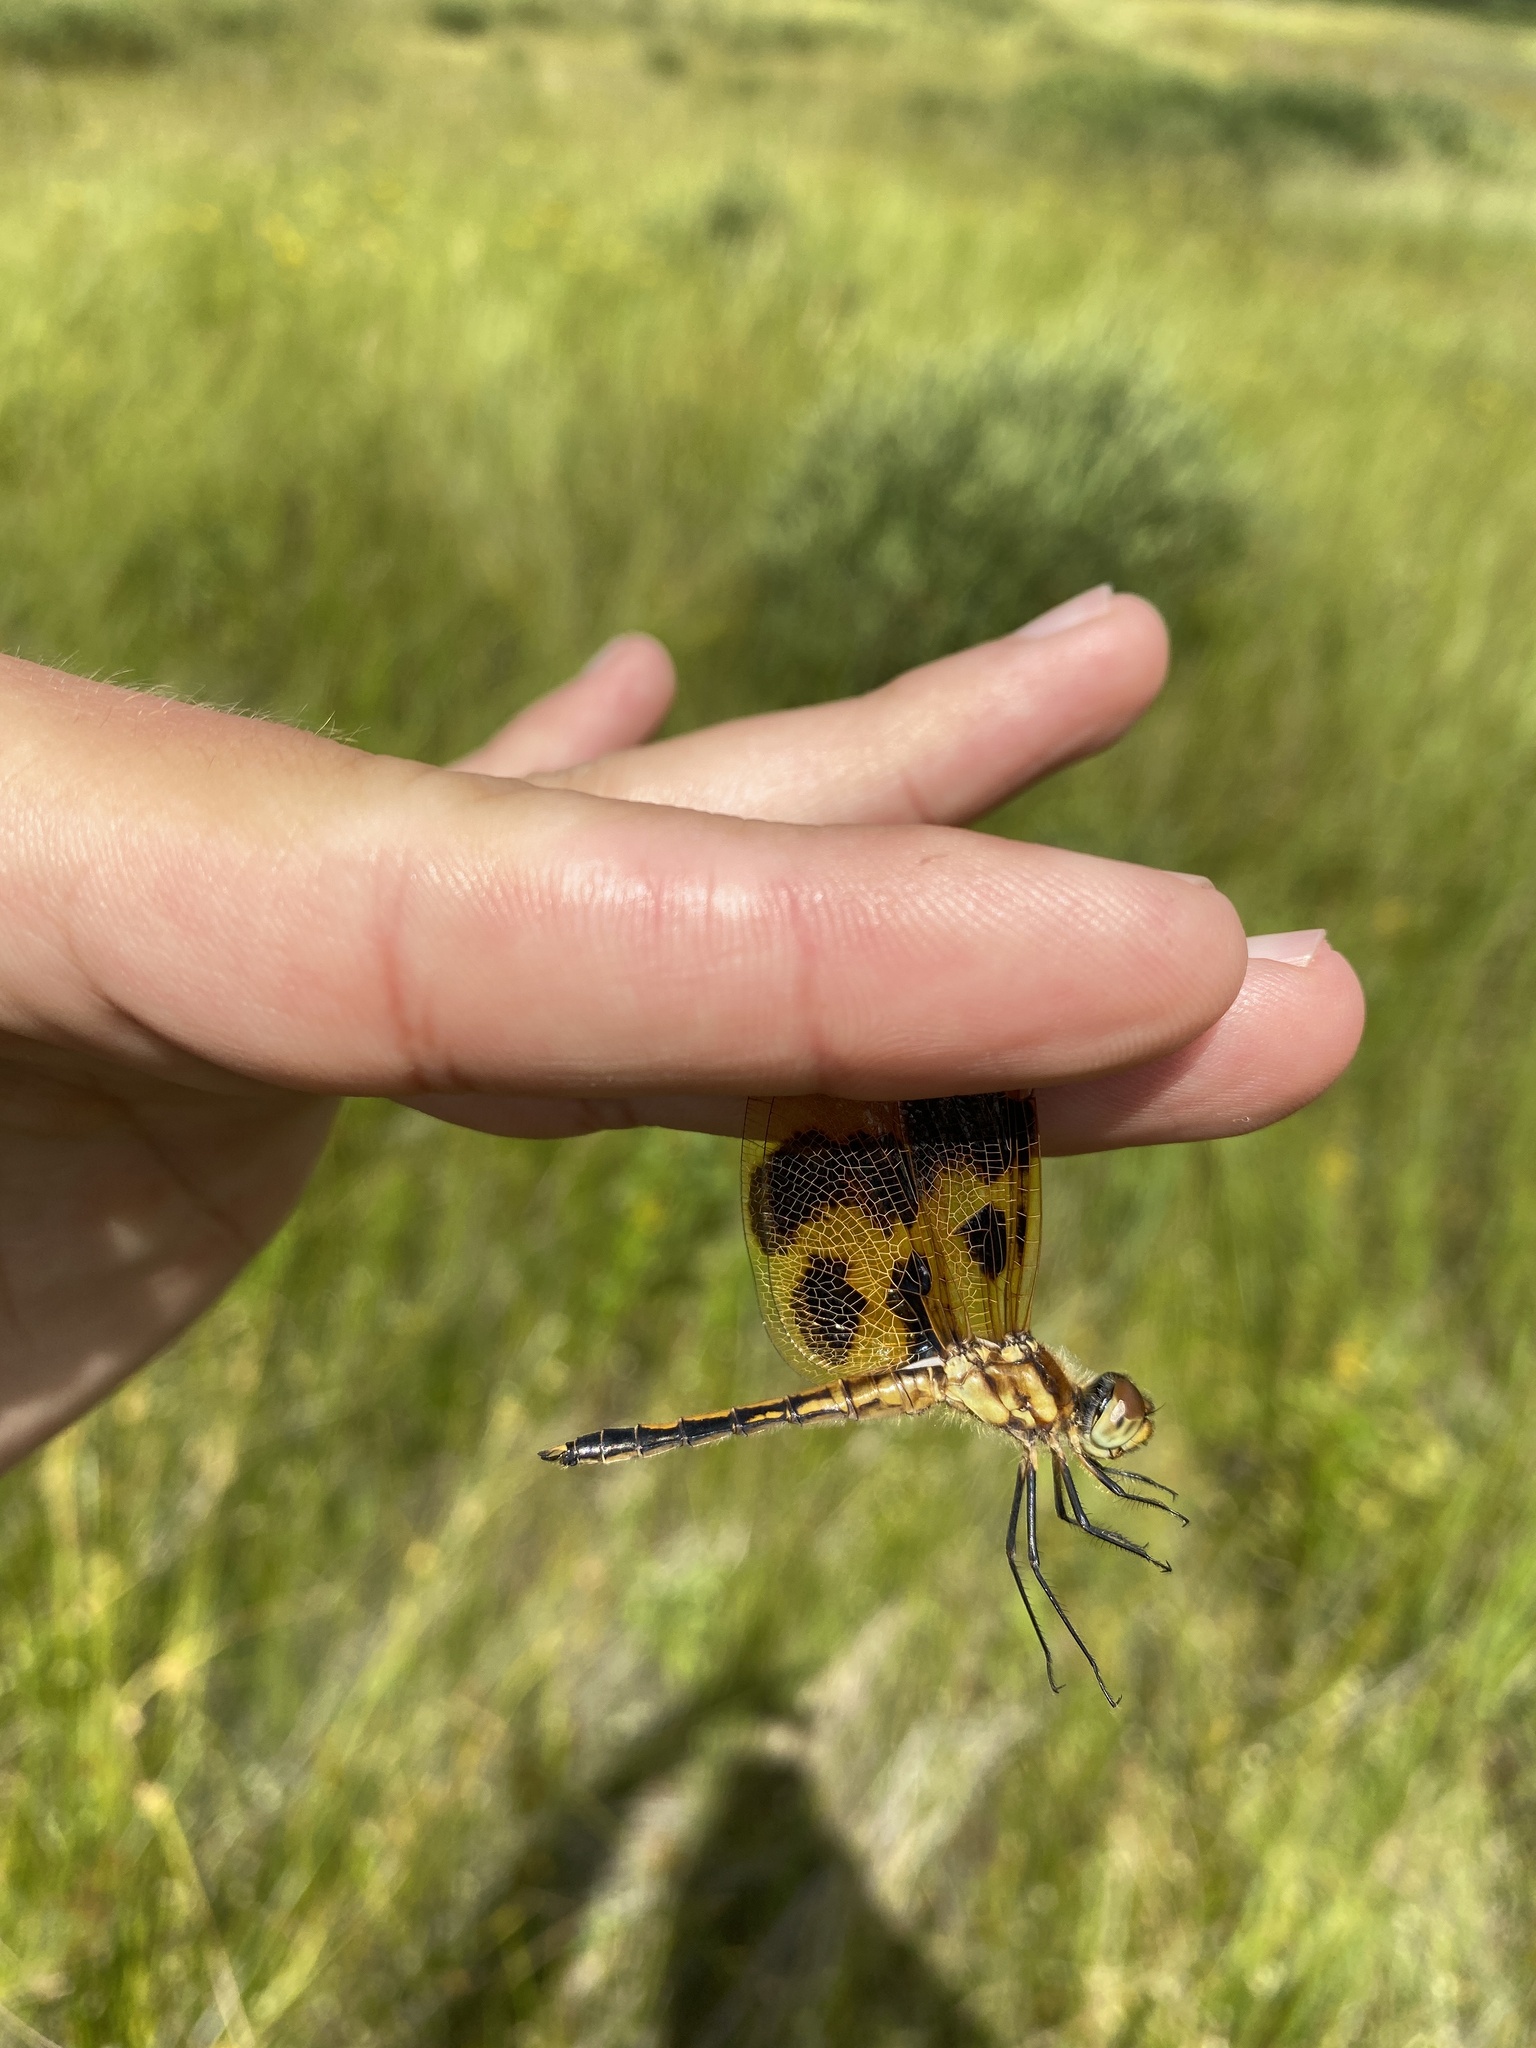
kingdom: Animalia
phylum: Arthropoda
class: Insecta
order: Odonata
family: Libellulidae
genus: Celithemis
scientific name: Celithemis eponina
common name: Halloween pennant
